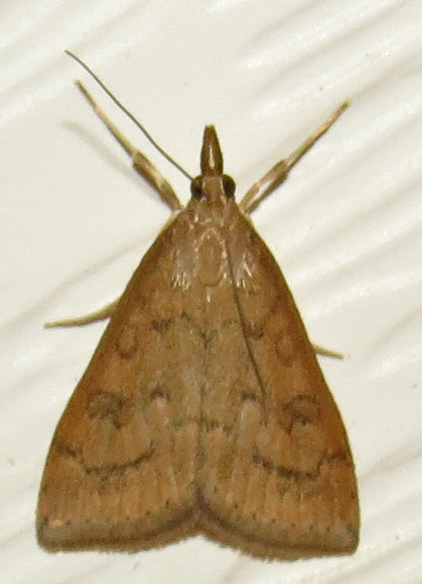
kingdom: Animalia
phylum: Arthropoda
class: Insecta
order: Lepidoptera
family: Crambidae
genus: Udea
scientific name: Udea rubigalis
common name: Celery leaftier moth
